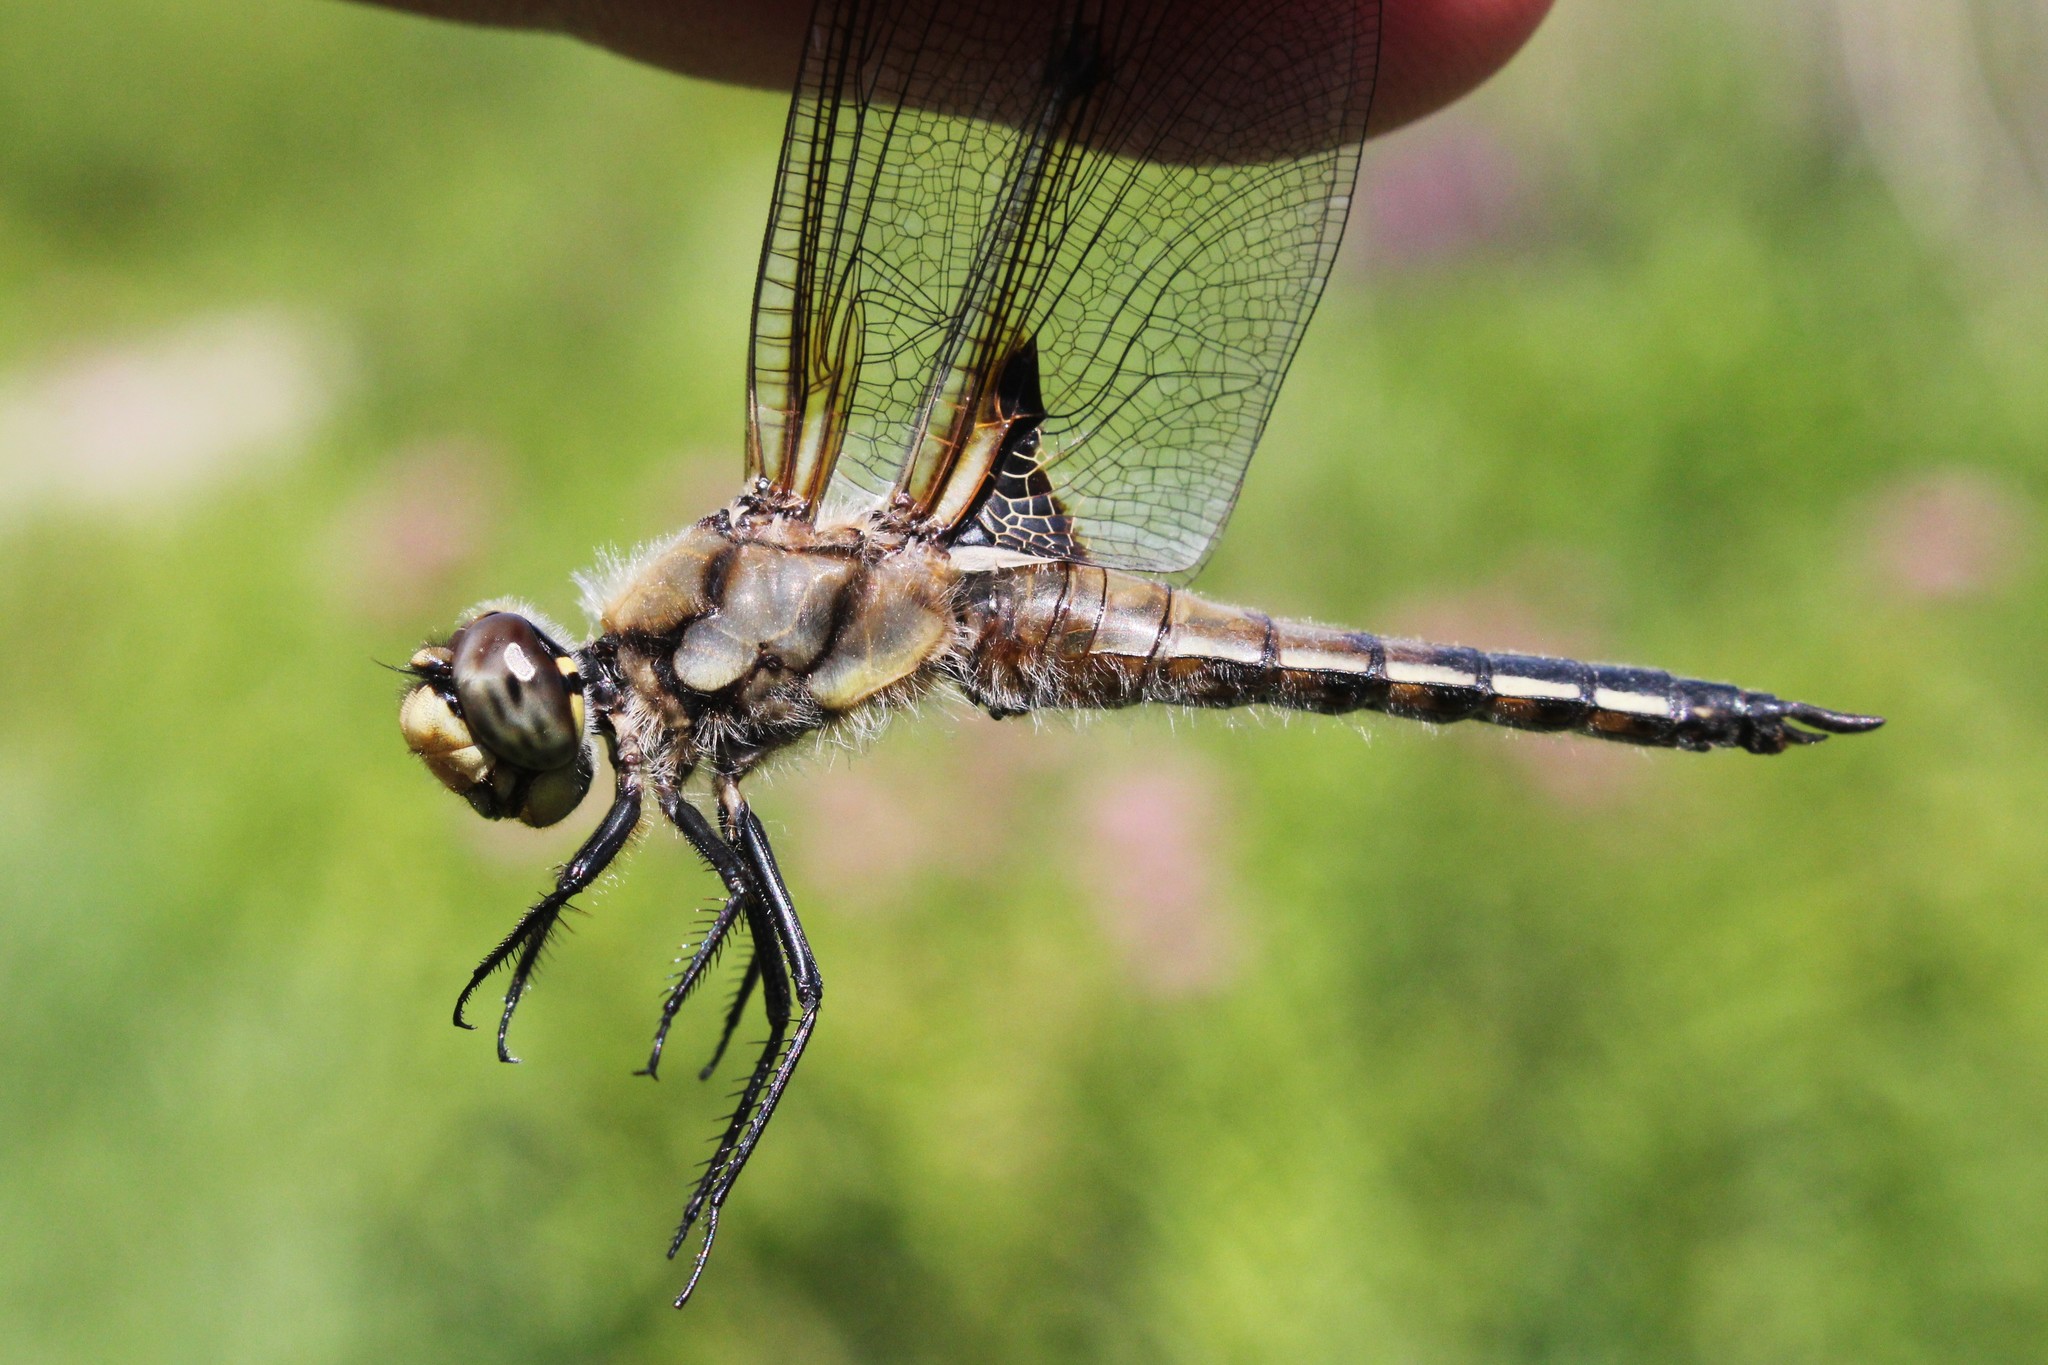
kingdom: Animalia
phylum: Arthropoda
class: Insecta
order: Odonata
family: Libellulidae
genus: Libellula
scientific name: Libellula quadrimaculata
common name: Four-spotted chaser
